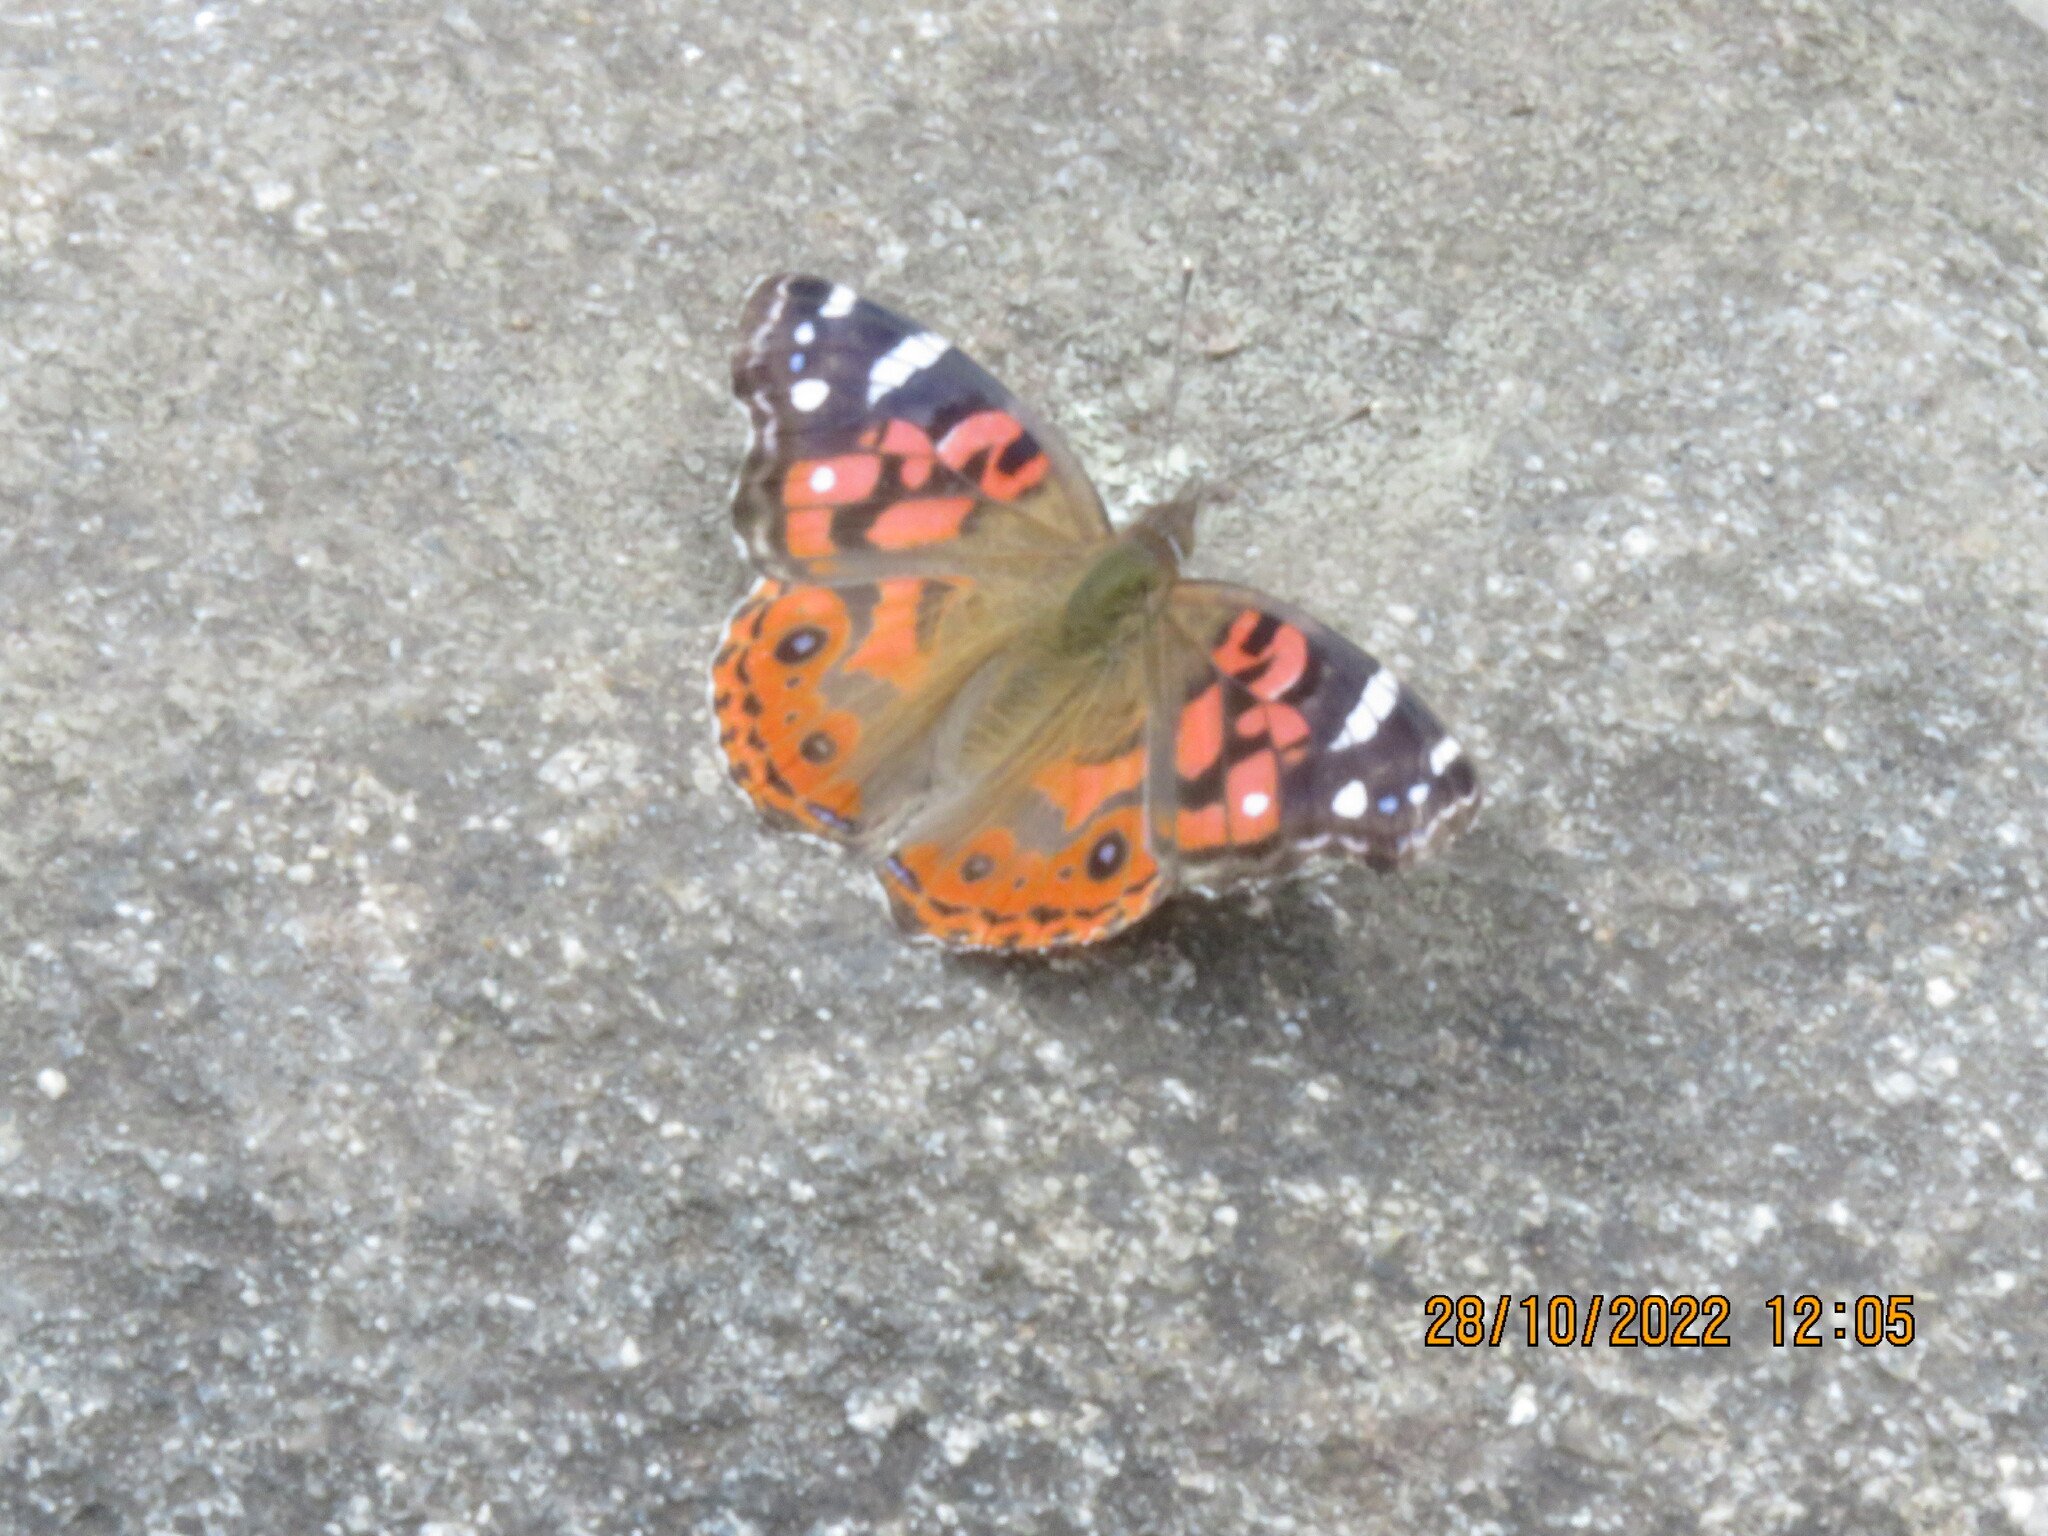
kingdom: Animalia
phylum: Arthropoda
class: Insecta
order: Lepidoptera
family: Nymphalidae
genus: Vanessa
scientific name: Vanessa braziliensis
